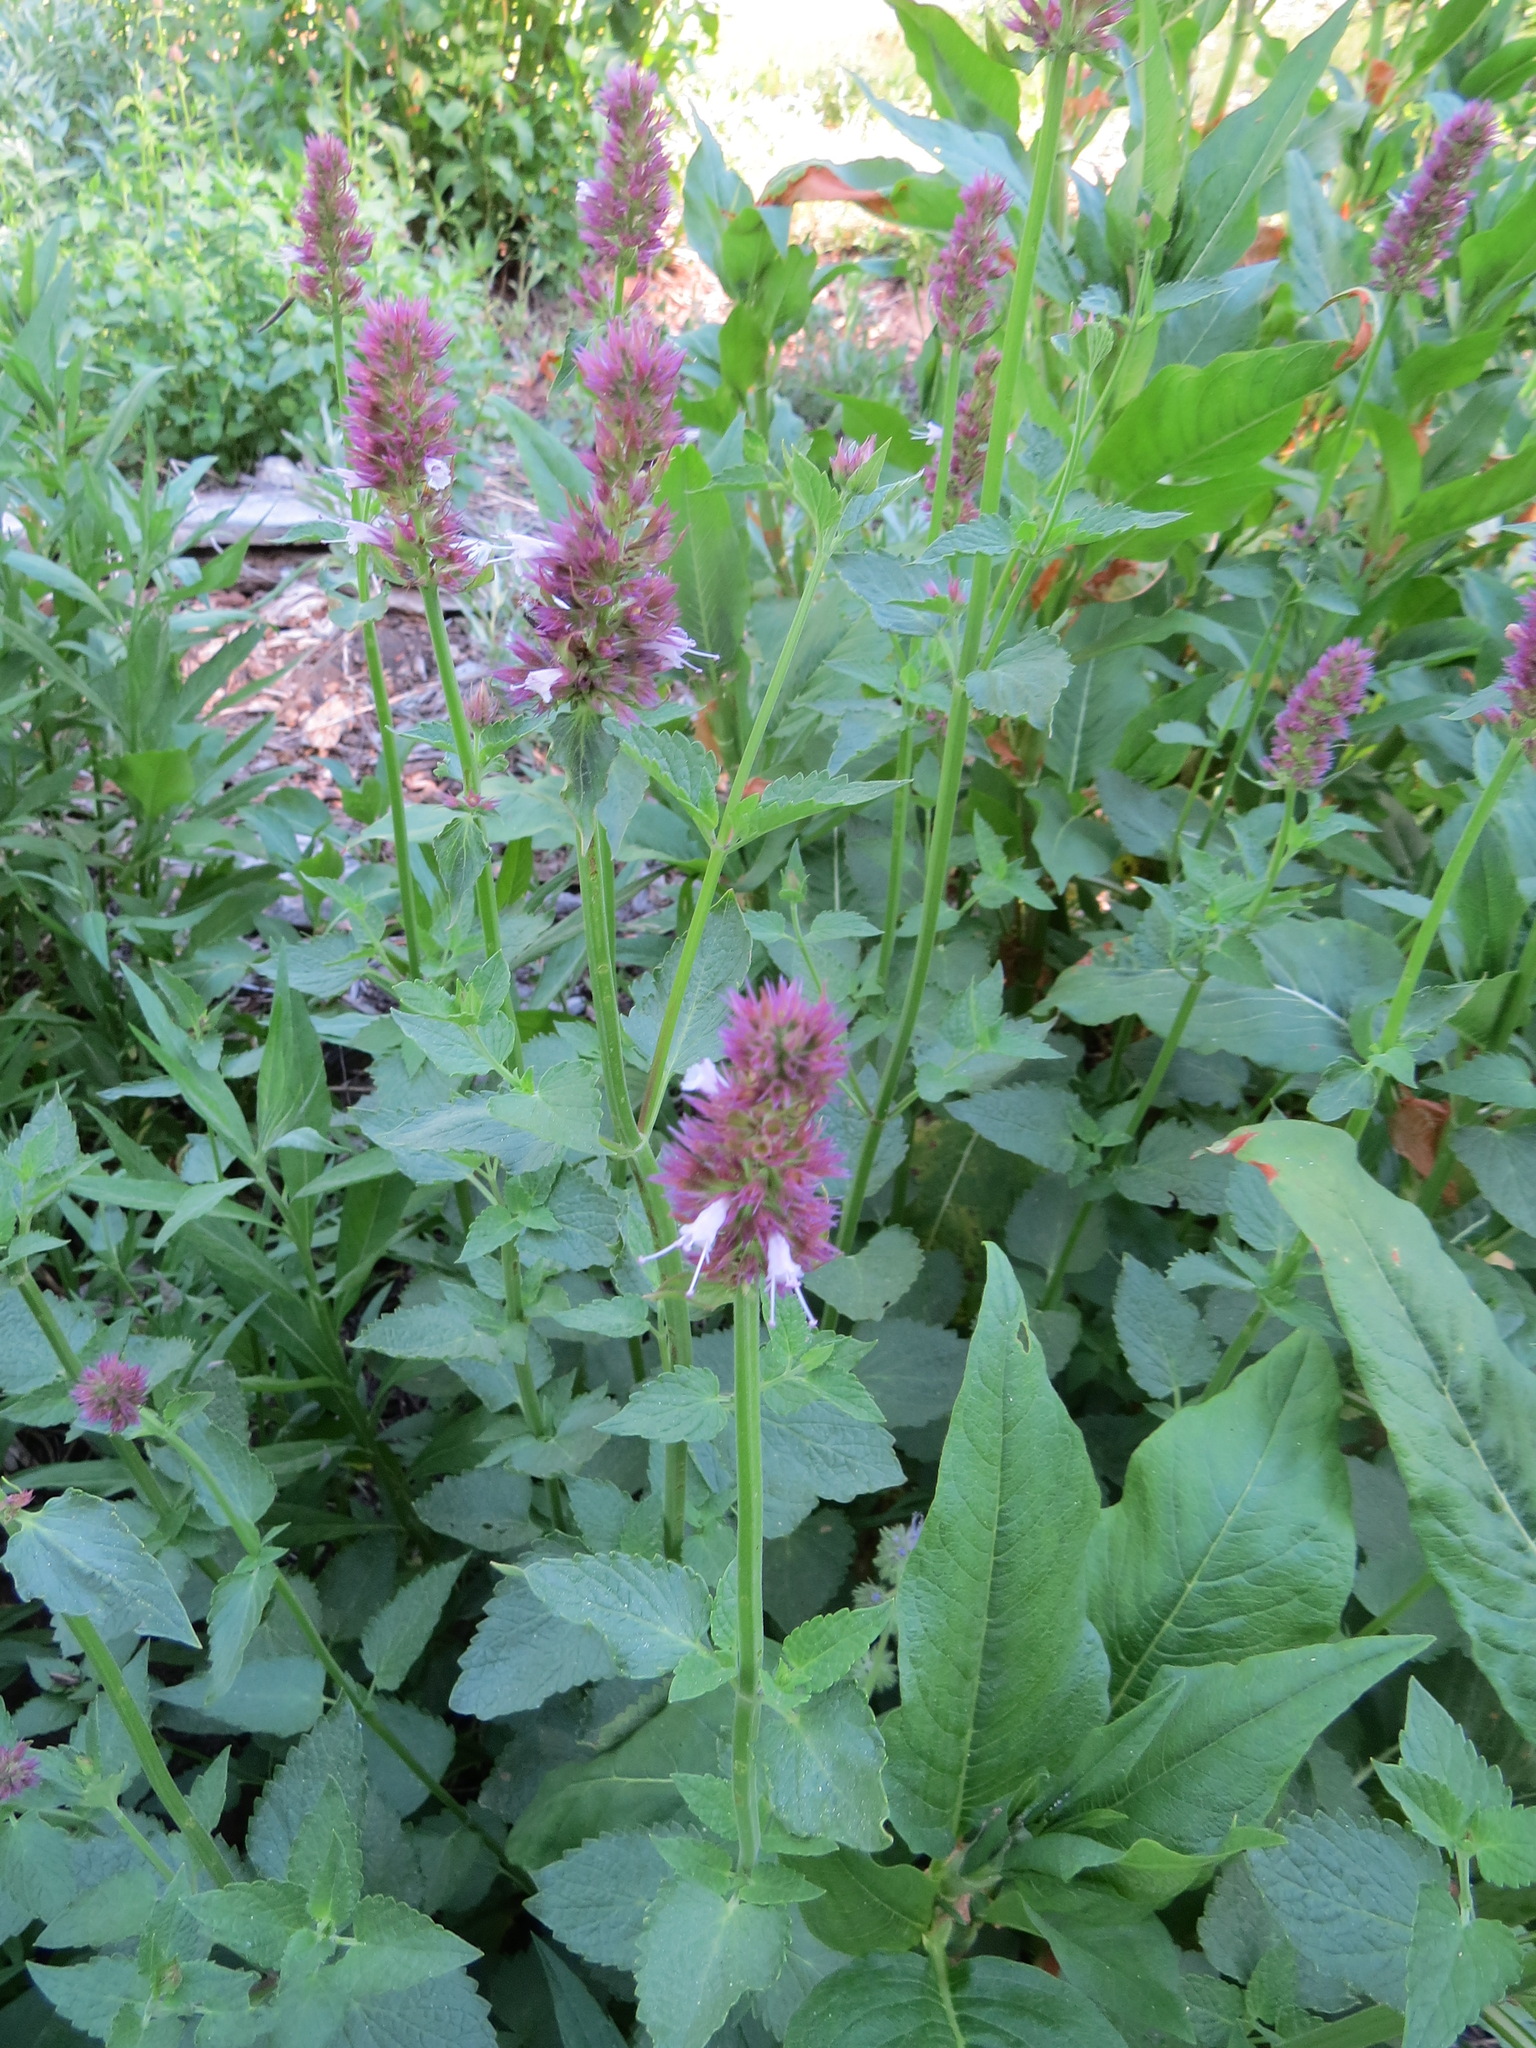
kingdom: Plantae
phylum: Tracheophyta
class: Magnoliopsida
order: Lamiales
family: Lamiaceae
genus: Agastache
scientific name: Agastache urticifolia
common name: Horsemint giant hyssop
